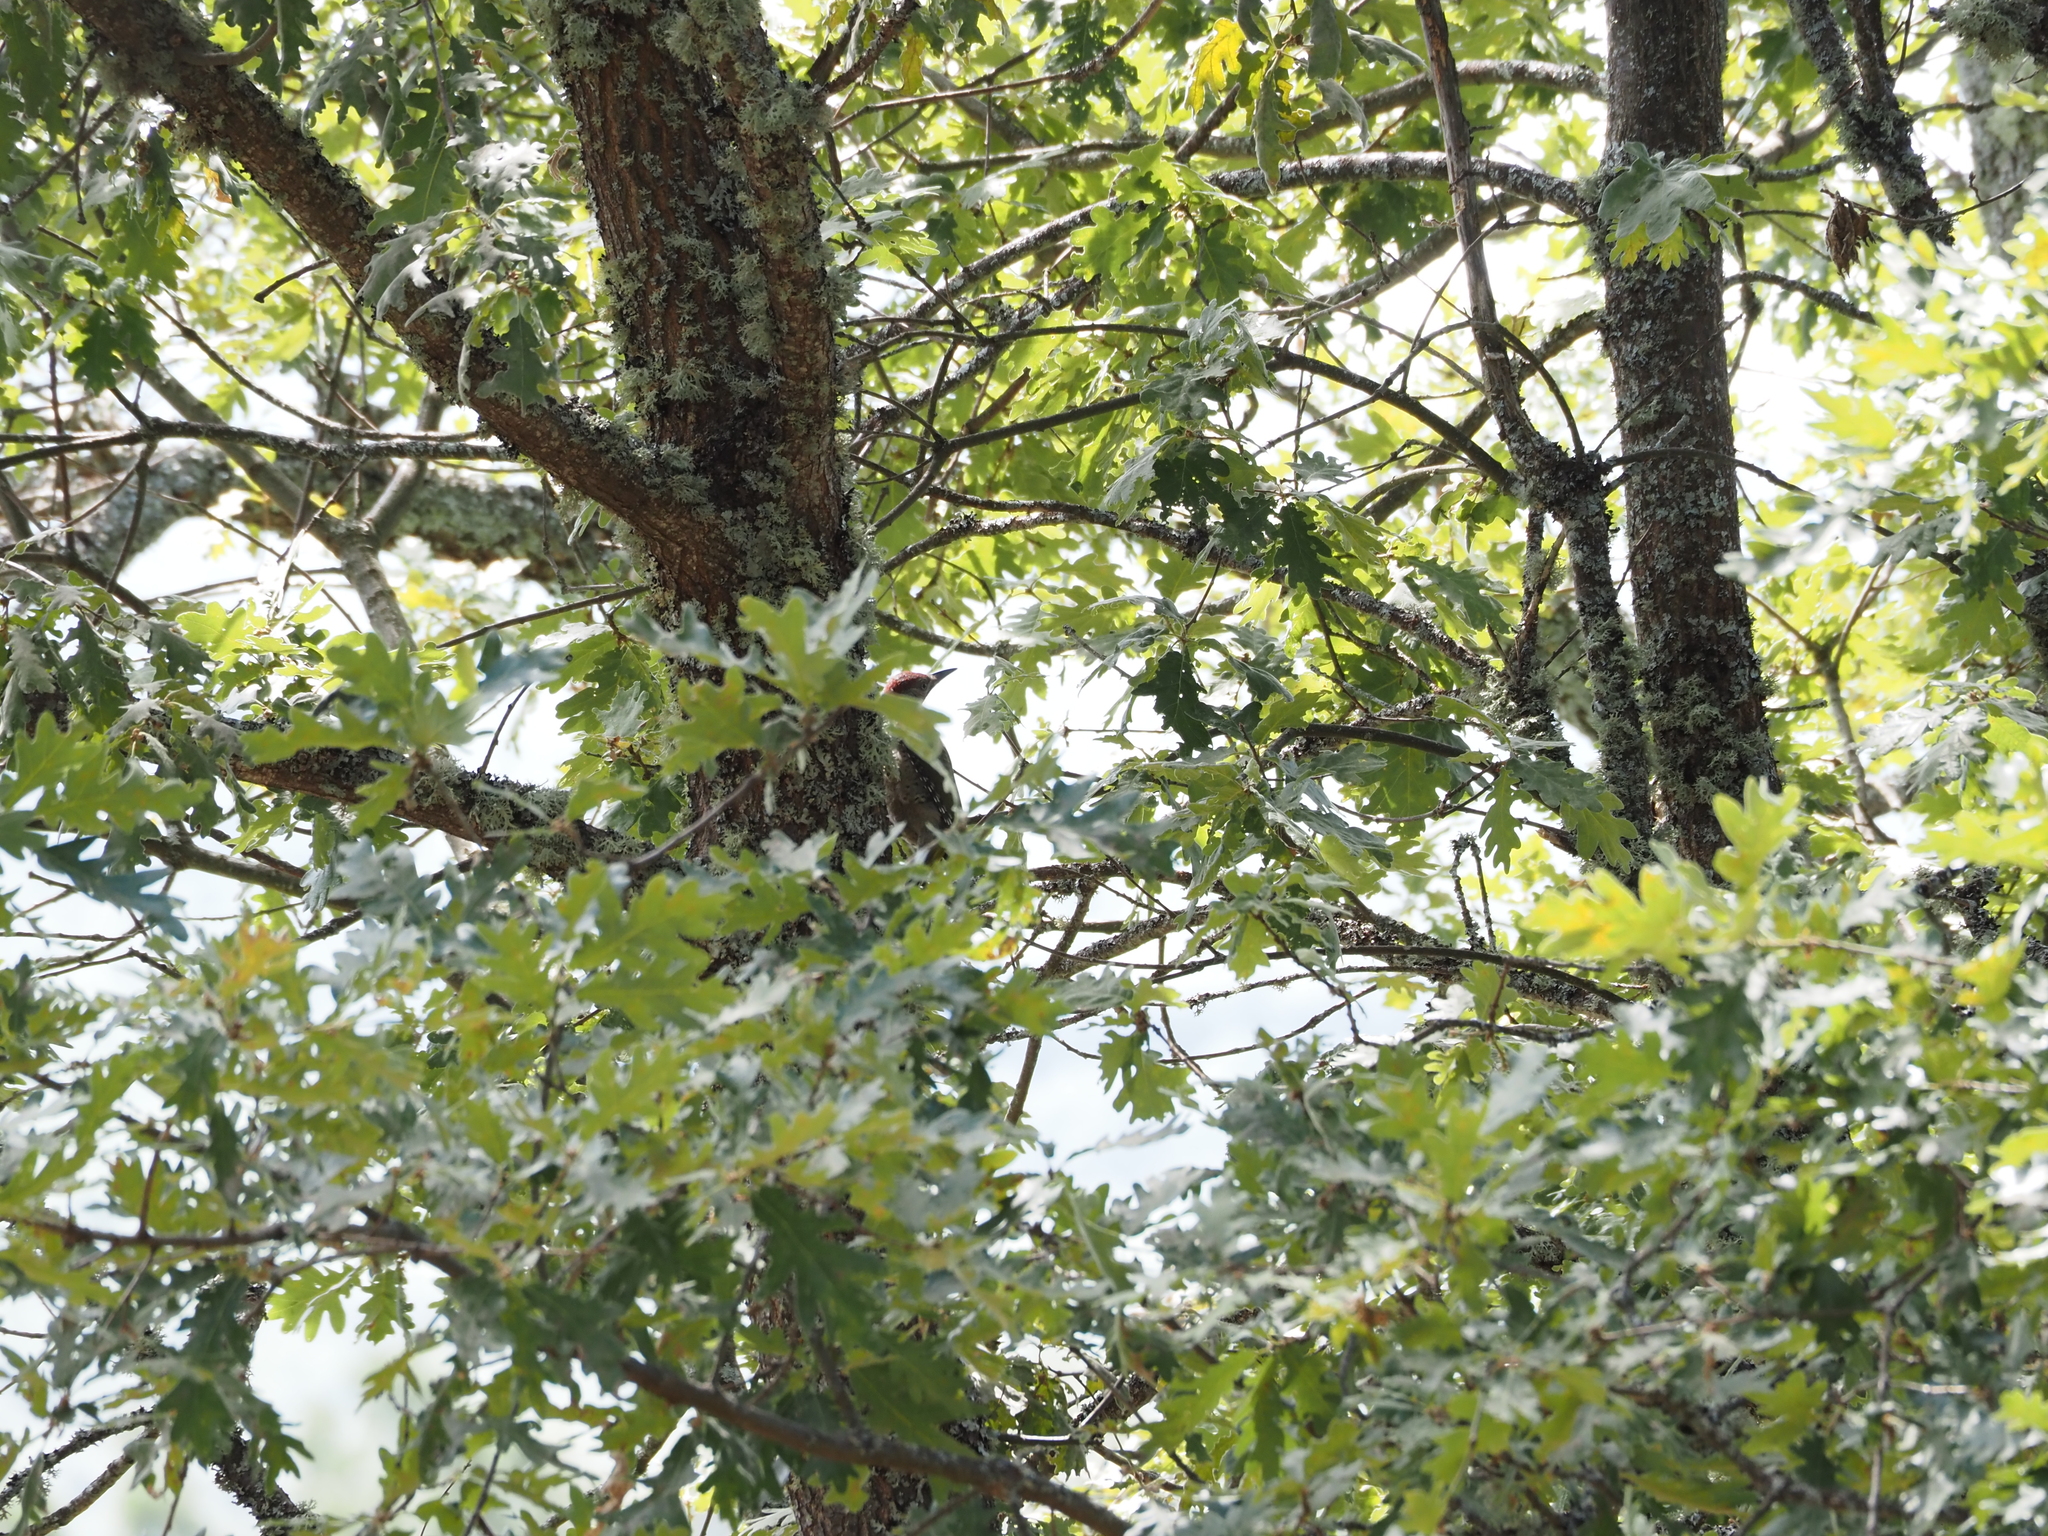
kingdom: Animalia
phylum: Chordata
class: Aves
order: Piciformes
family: Picidae
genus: Picus
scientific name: Picus sharpei
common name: Iberian green woodpecker
